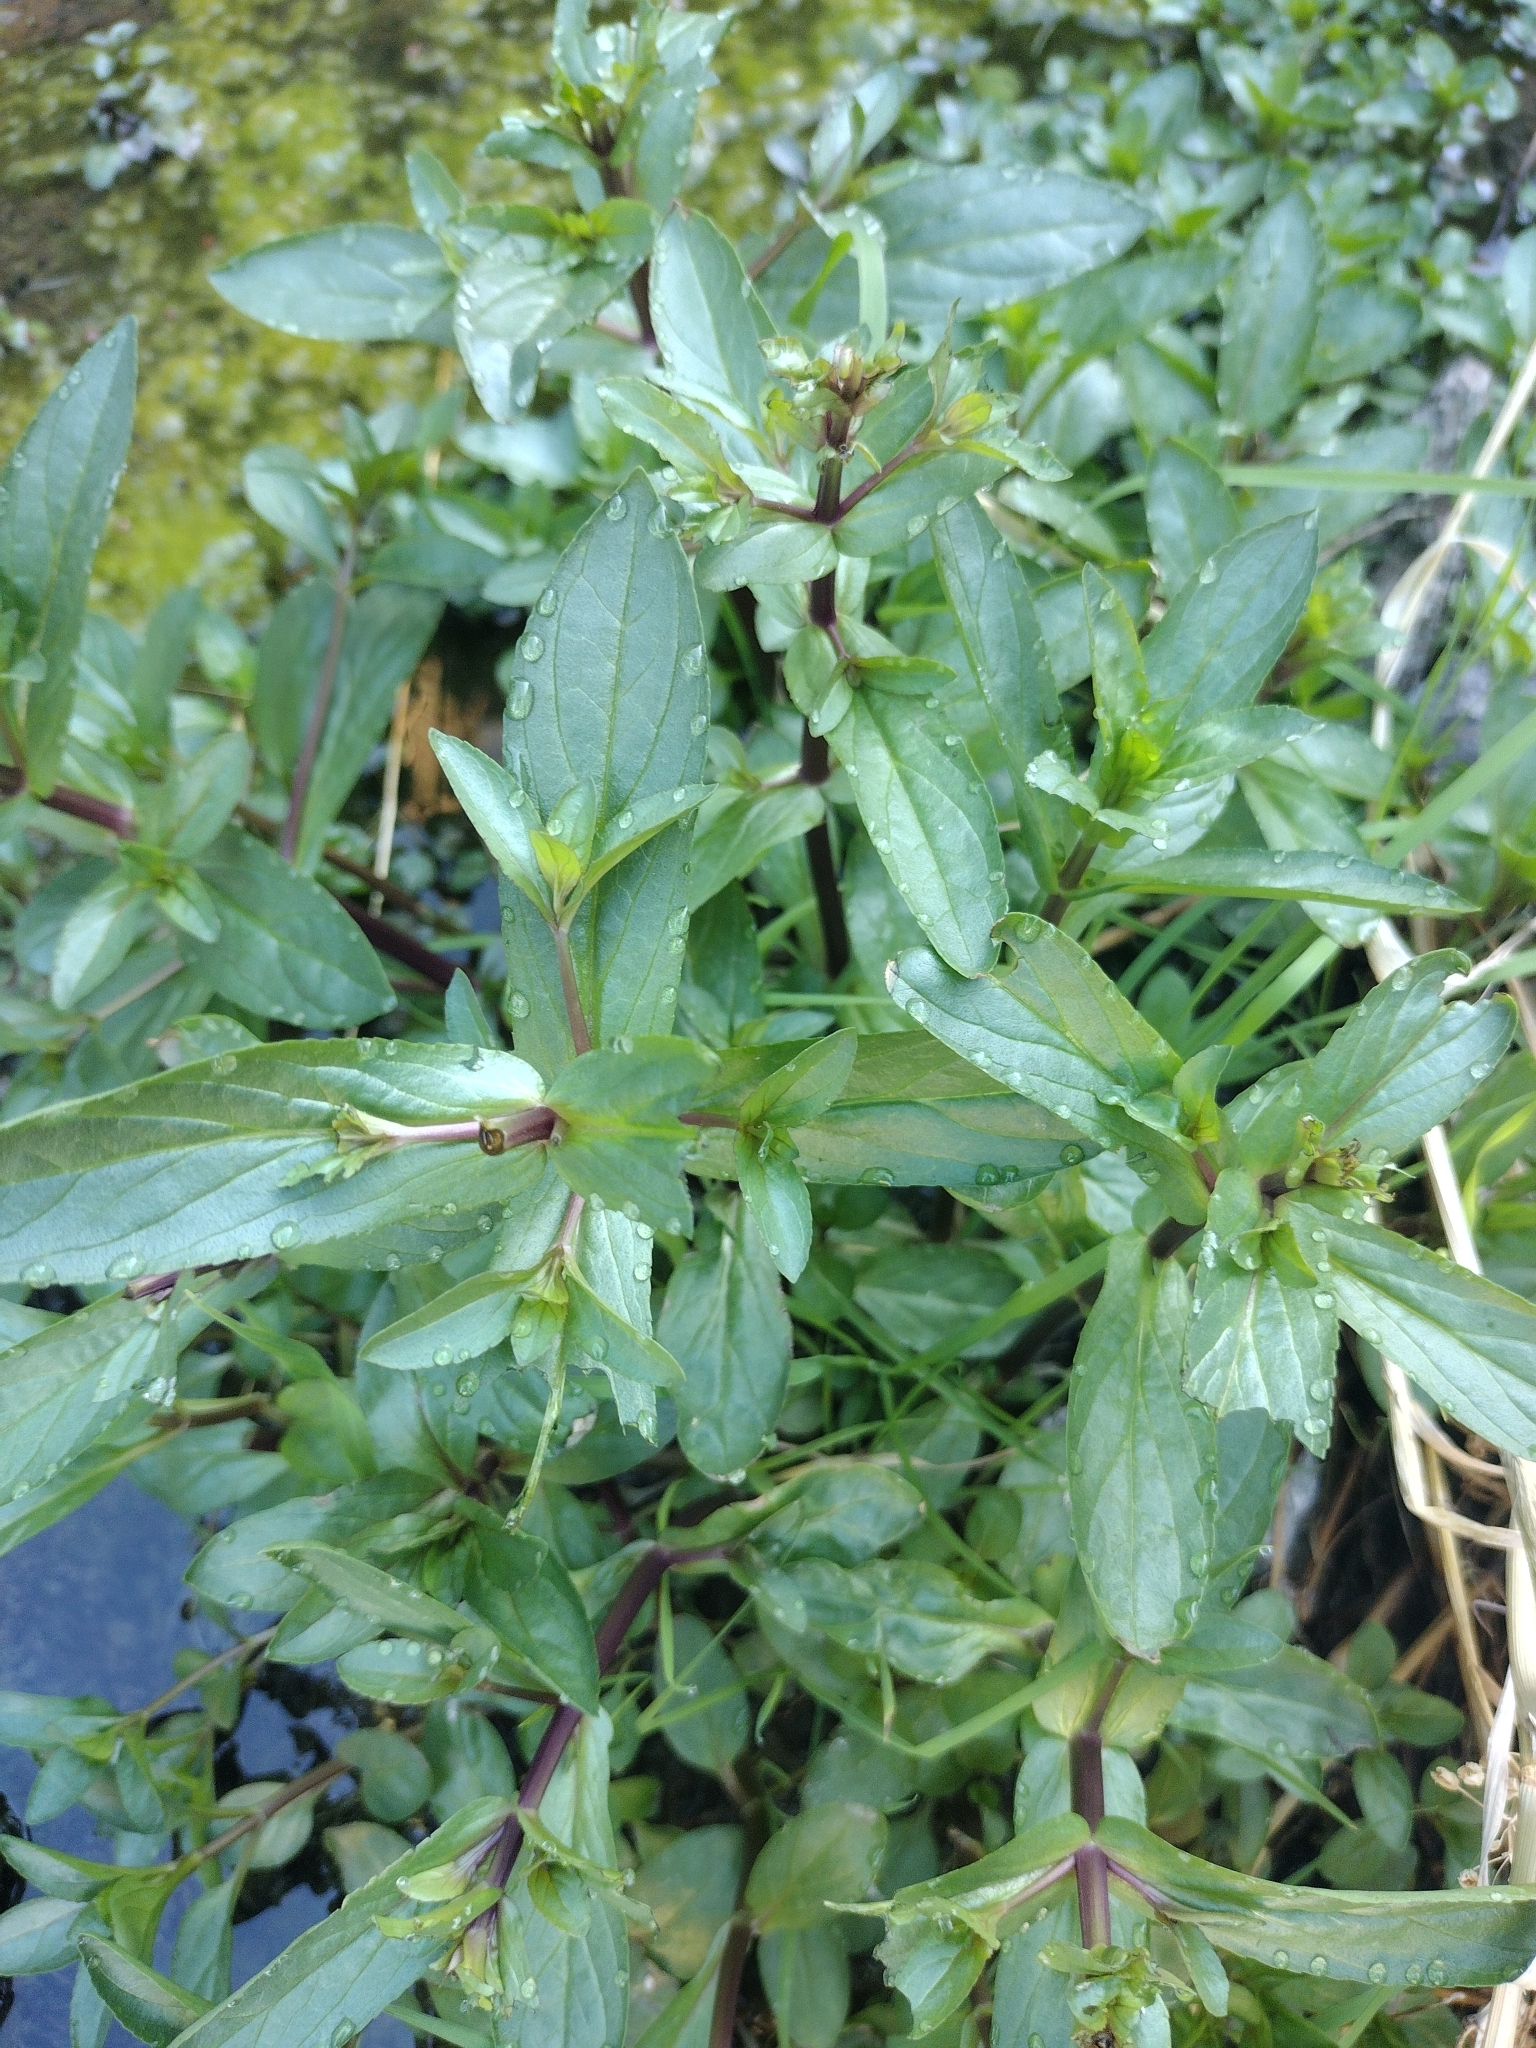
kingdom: Plantae
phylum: Tracheophyta
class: Magnoliopsida
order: Lamiales
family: Plantaginaceae
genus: Veronica
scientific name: Veronica anagallis-aquatica
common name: Water speedwell
